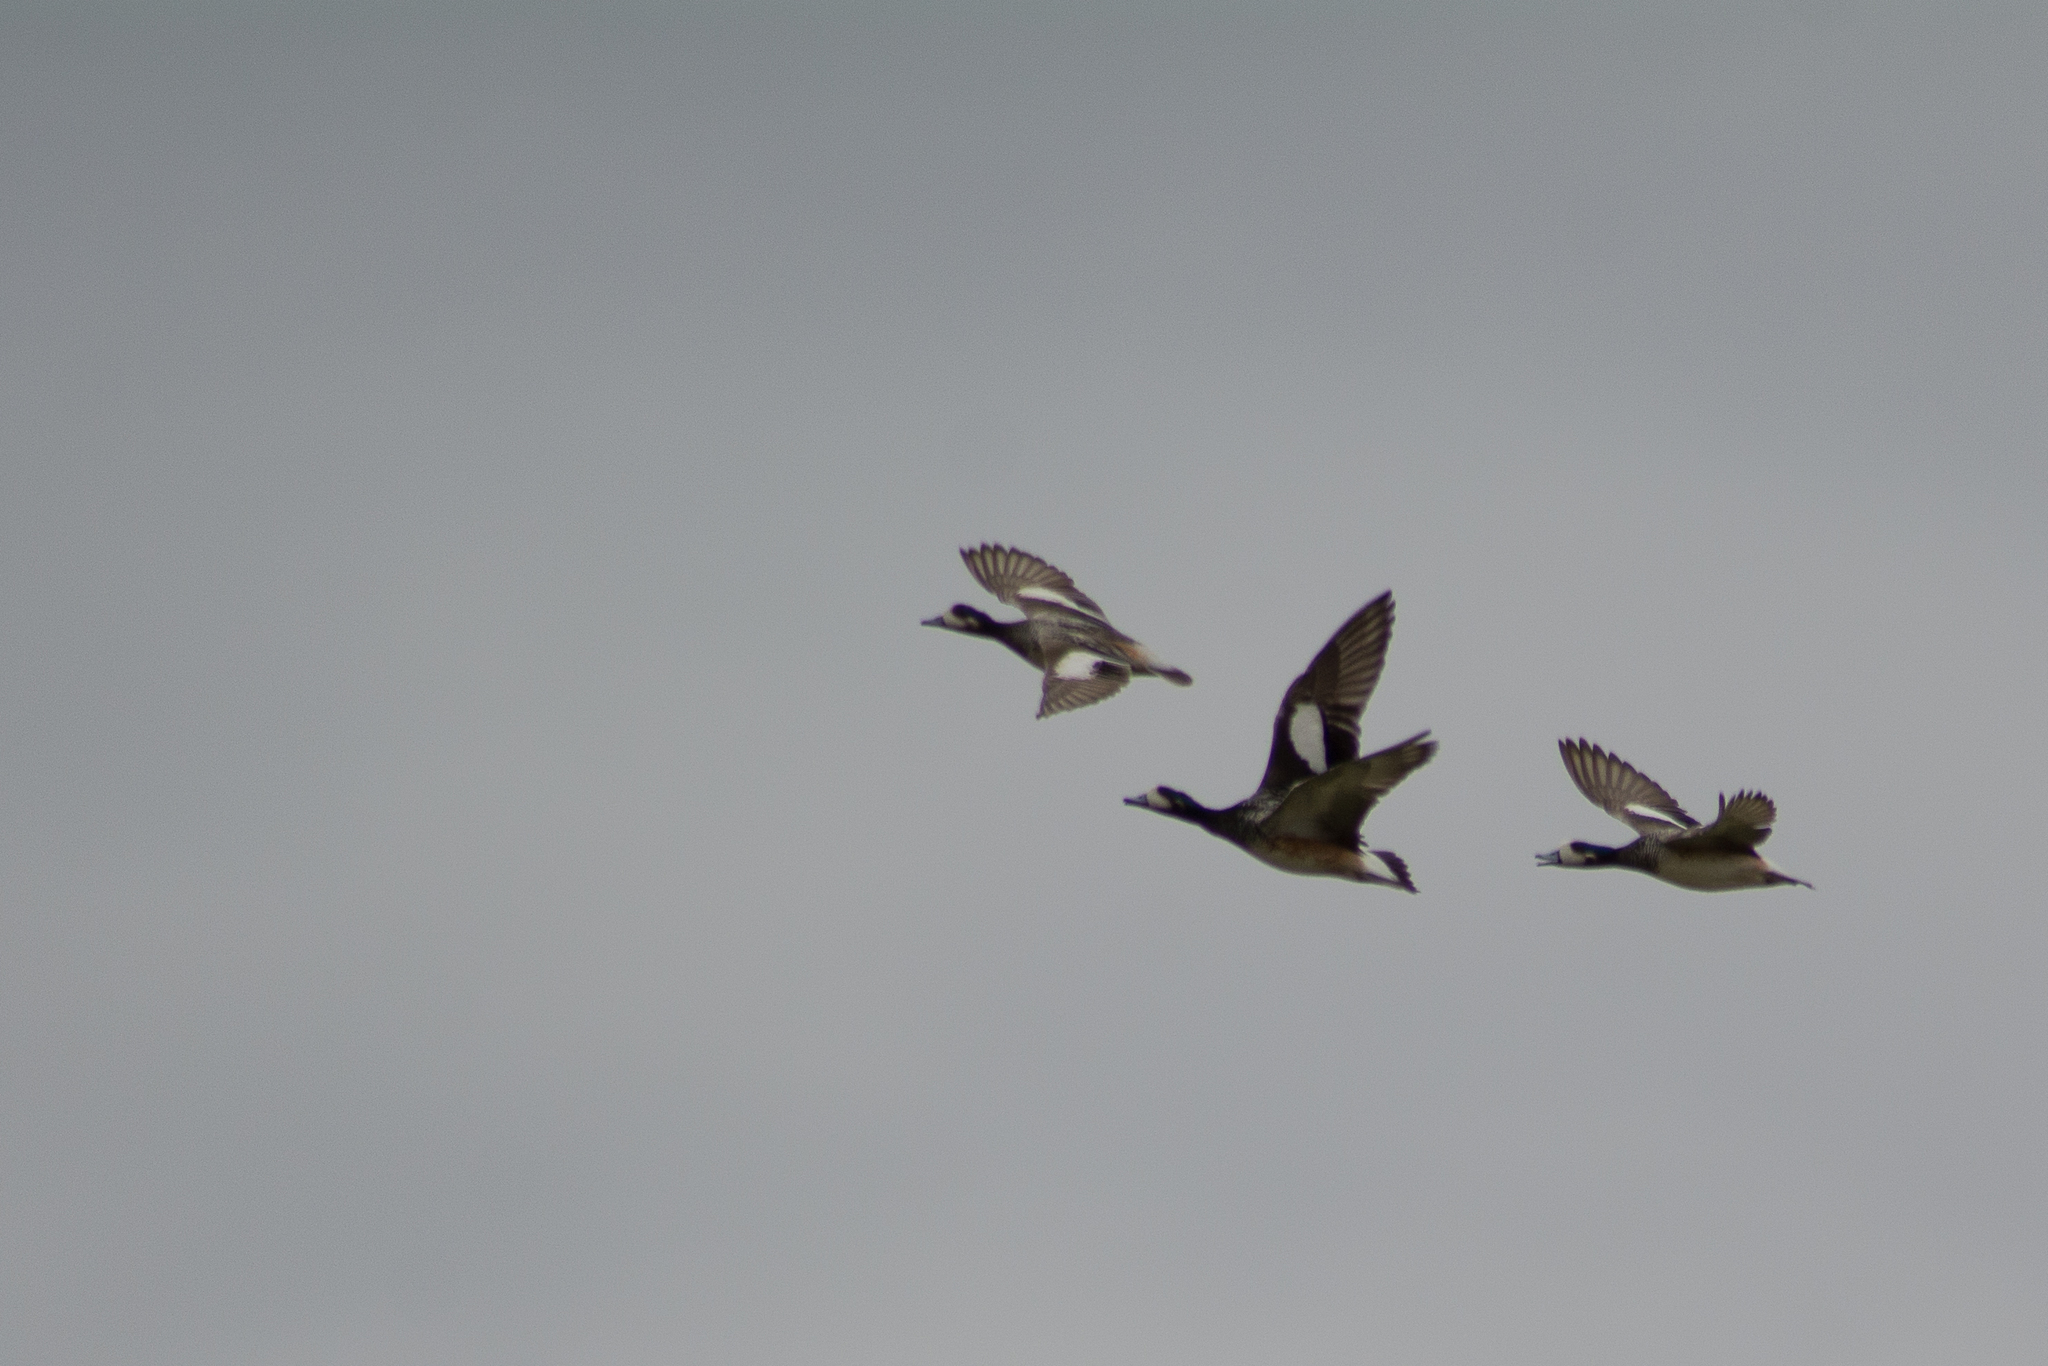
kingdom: Animalia
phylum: Chordata
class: Aves
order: Anseriformes
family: Anatidae
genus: Mareca
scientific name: Mareca sibilatrix
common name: Chiloe wigeon
